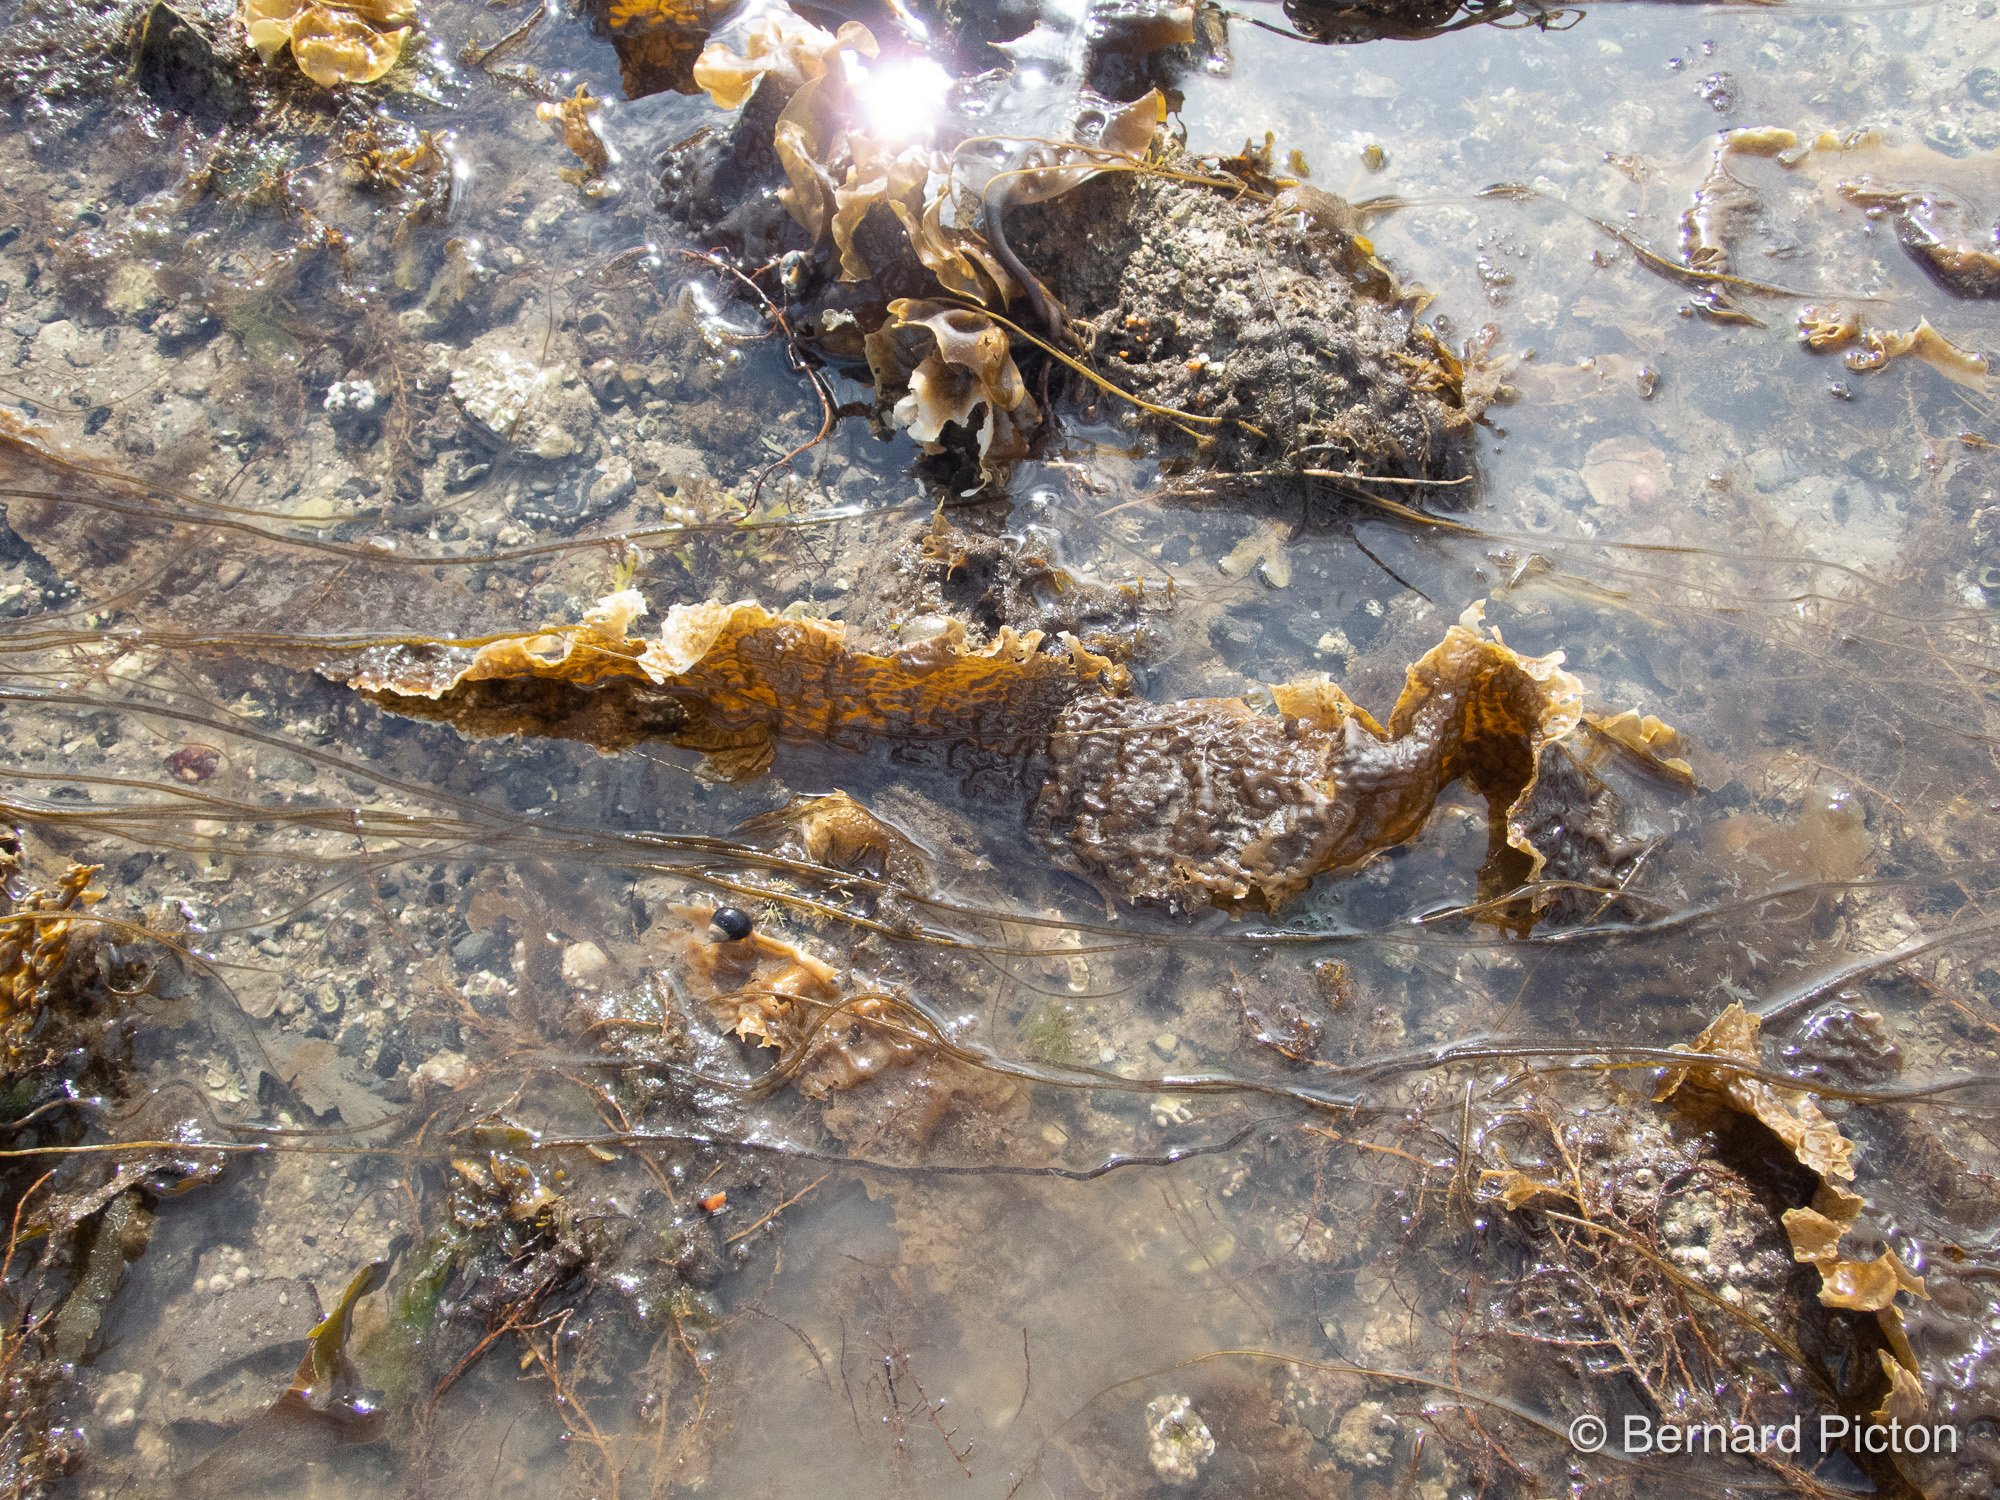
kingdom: Chromista
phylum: Ochrophyta
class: Phaeophyceae
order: Laminariales
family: Laminariaceae
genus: Saccharina
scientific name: Saccharina latissima
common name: Poor man's weather glass
